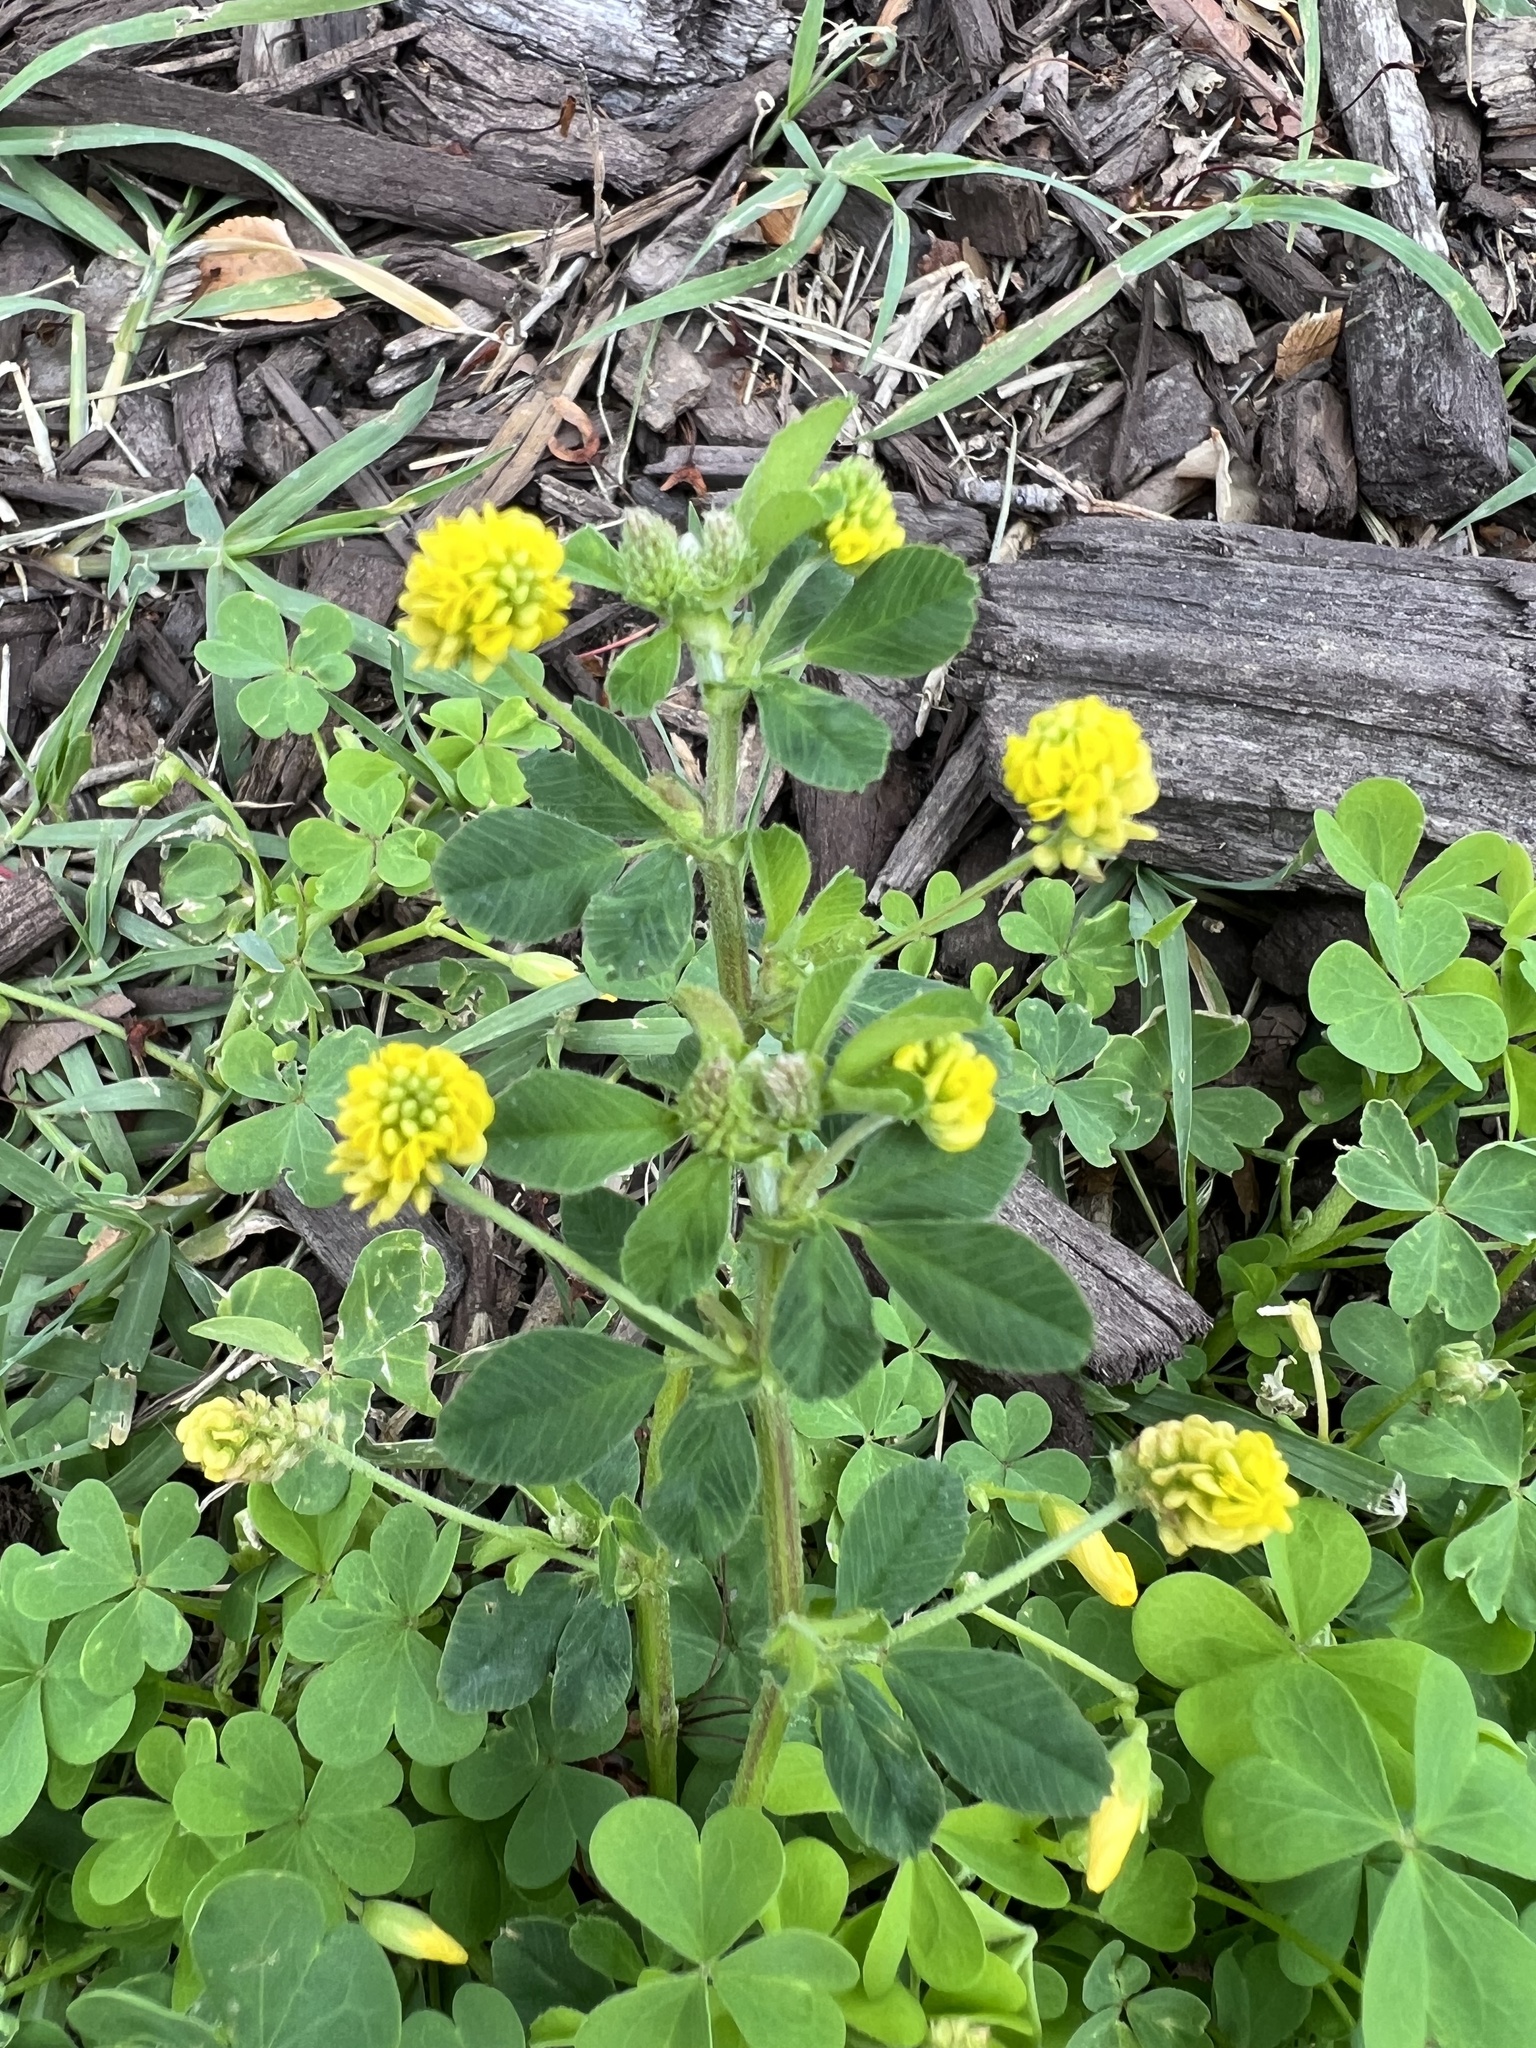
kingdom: Plantae
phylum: Tracheophyta
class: Magnoliopsida
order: Fabales
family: Fabaceae
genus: Medicago
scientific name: Medicago lupulina
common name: Black medick
